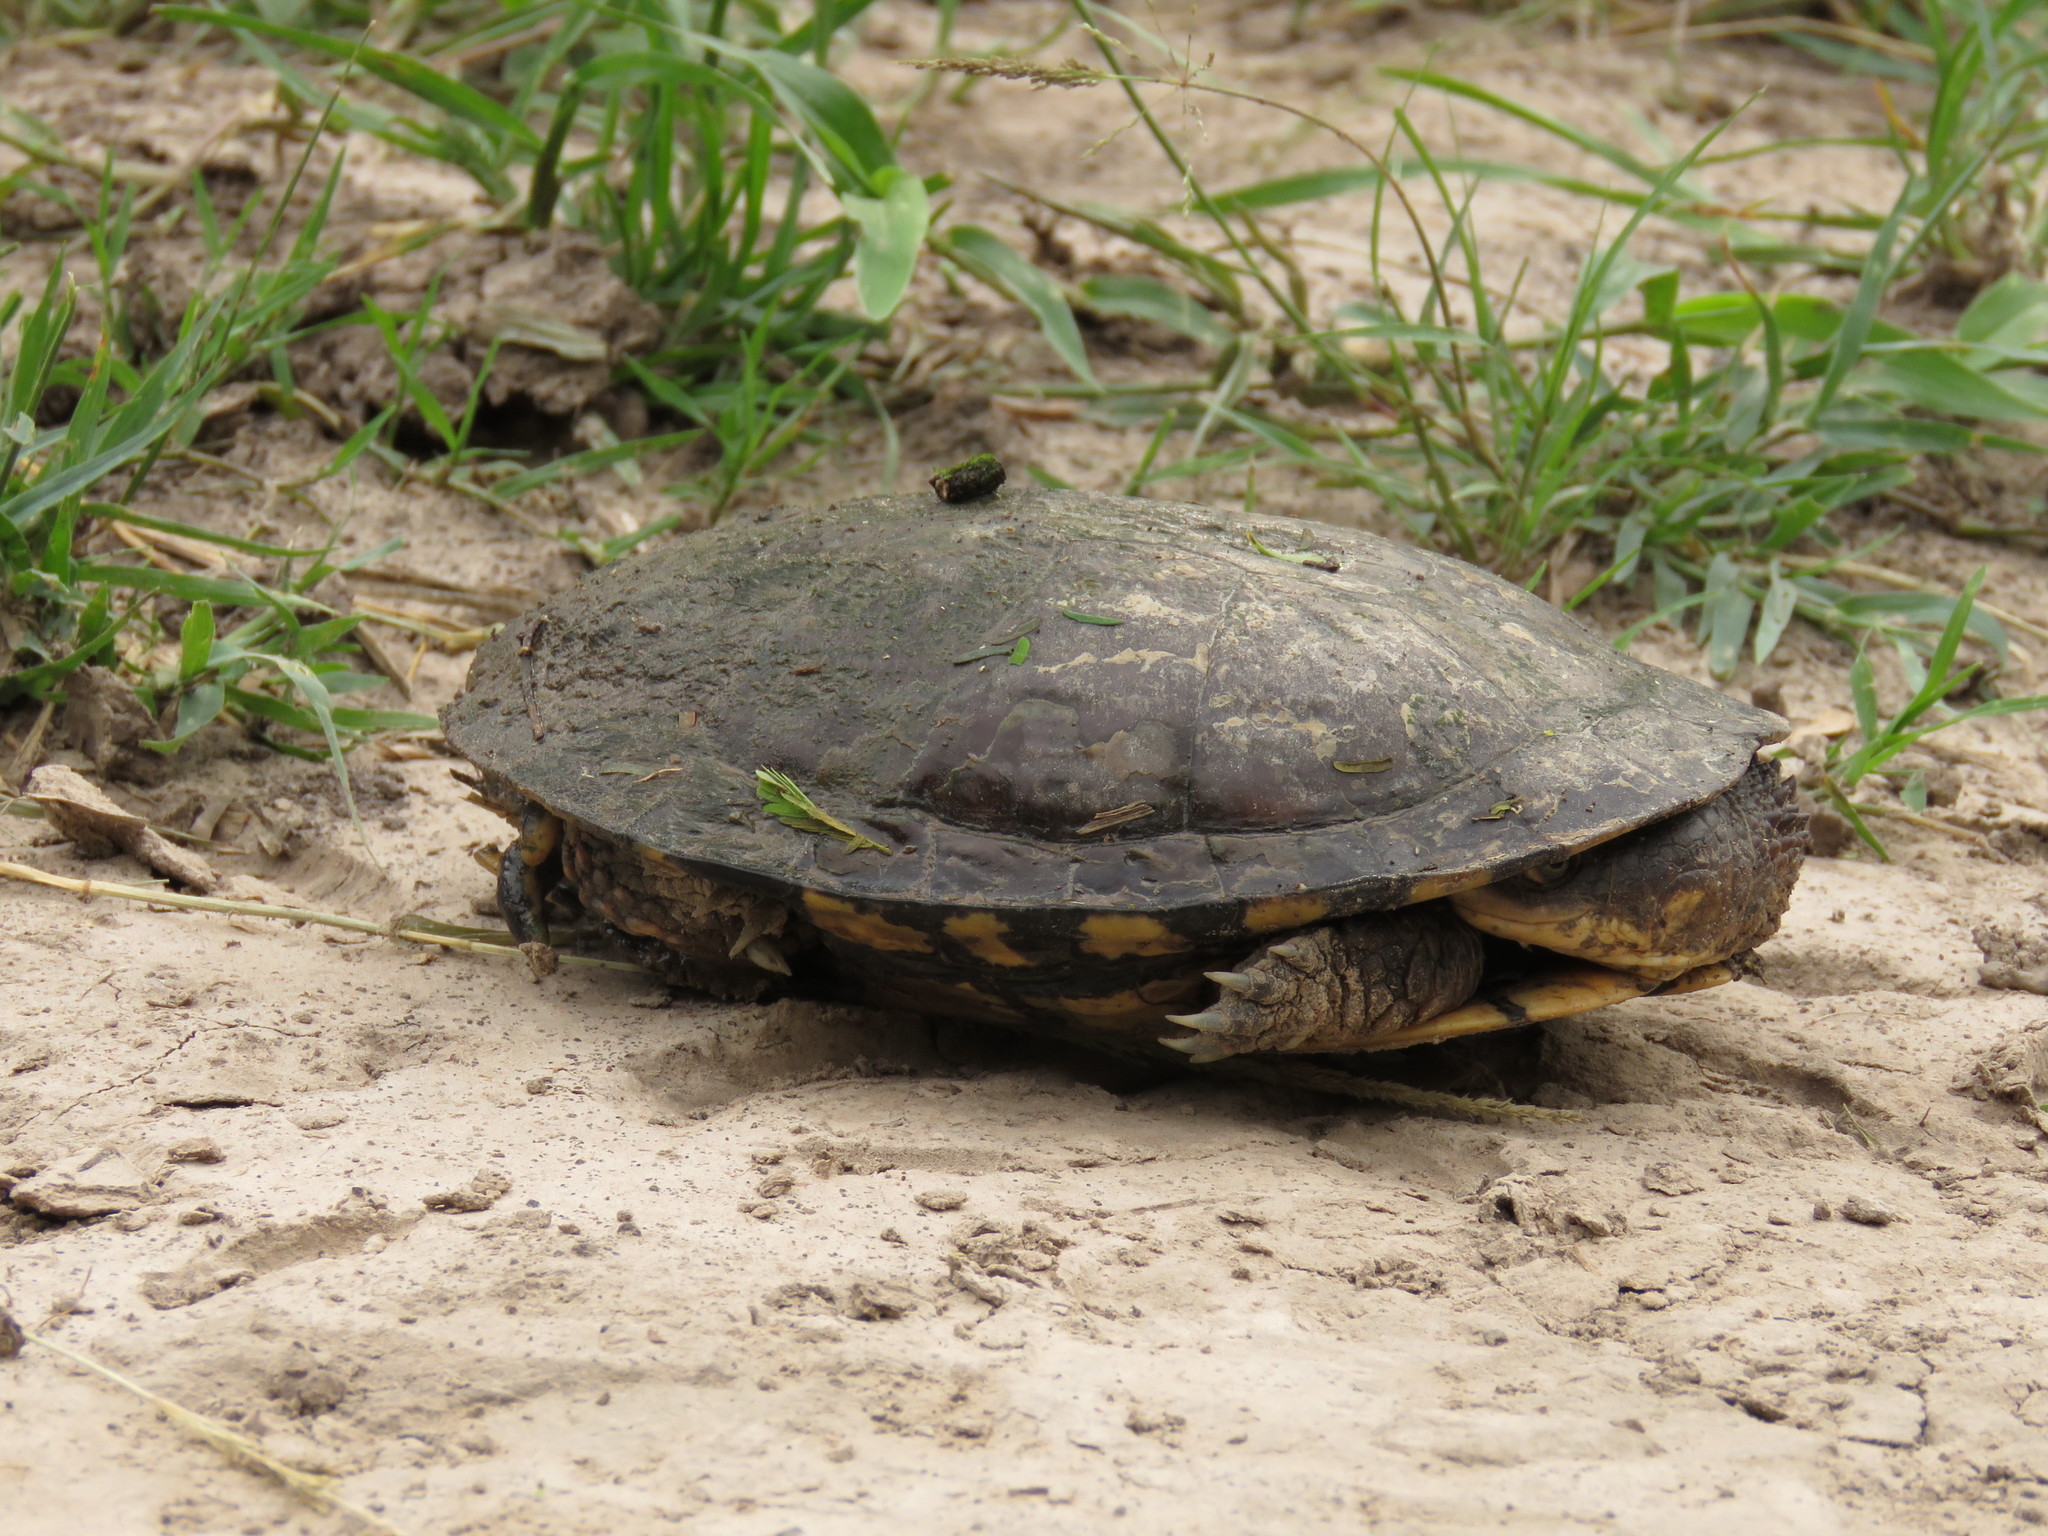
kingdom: Animalia
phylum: Chordata
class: Testudines
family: Chelidae
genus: Acanthochelys
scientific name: Acanthochelys pallidipectoris
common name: Chaco side-necked turtle
